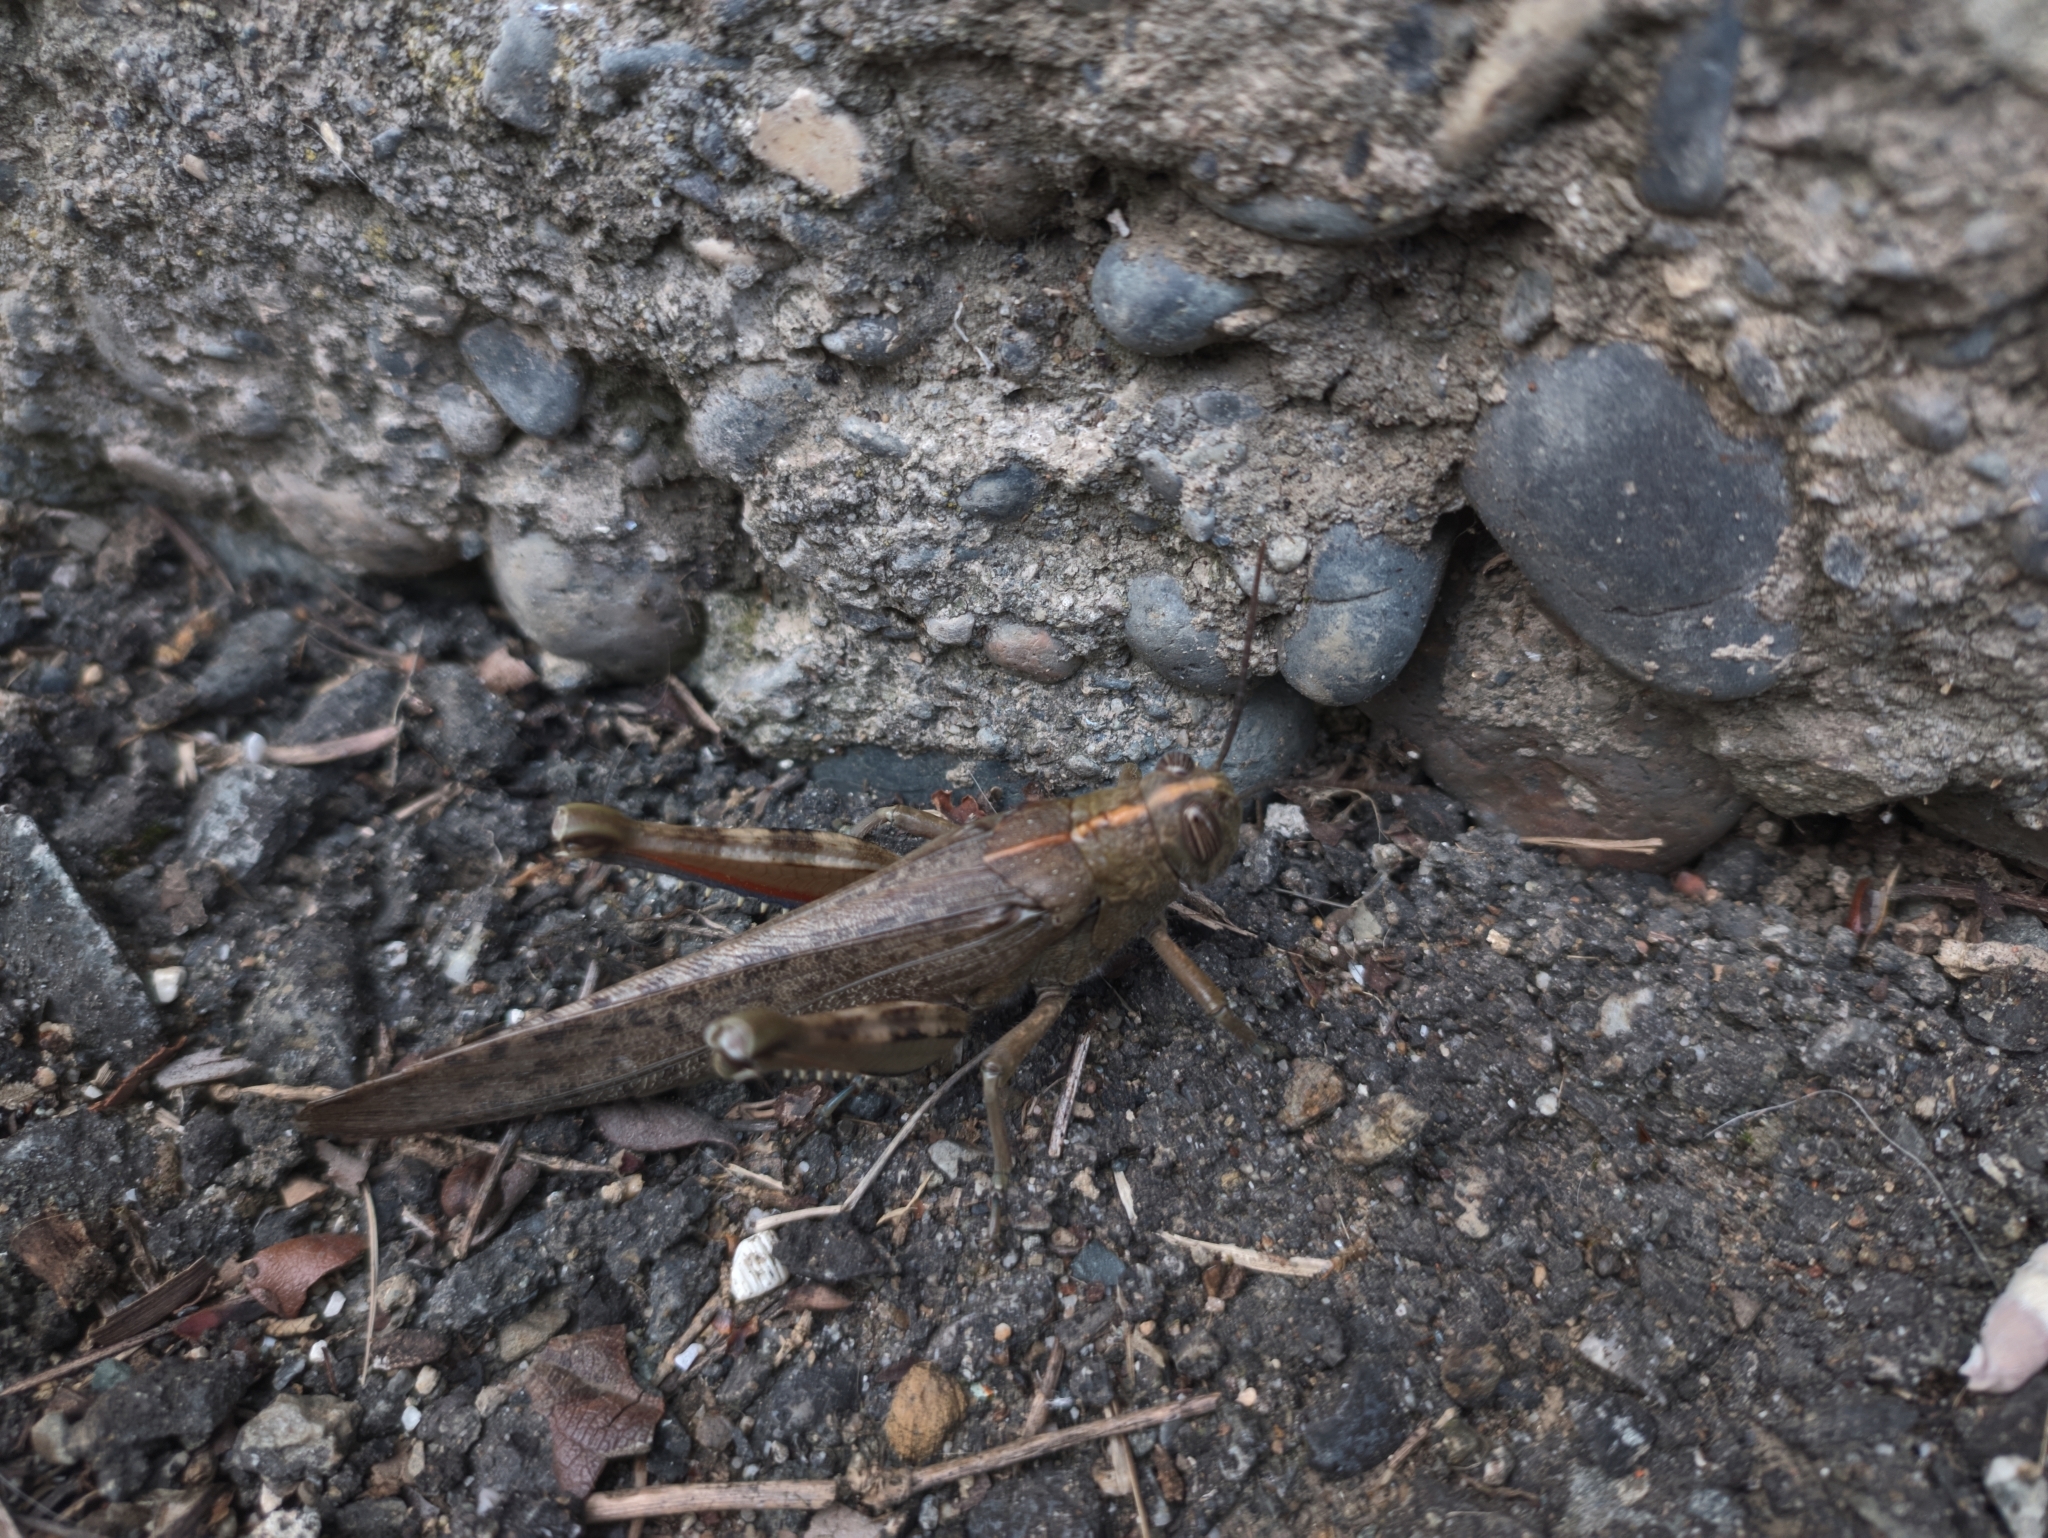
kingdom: Animalia
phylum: Arthropoda
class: Insecta
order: Orthoptera
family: Acrididae
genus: Anacridium
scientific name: Anacridium aegyptium
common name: Egyptian grasshopper
